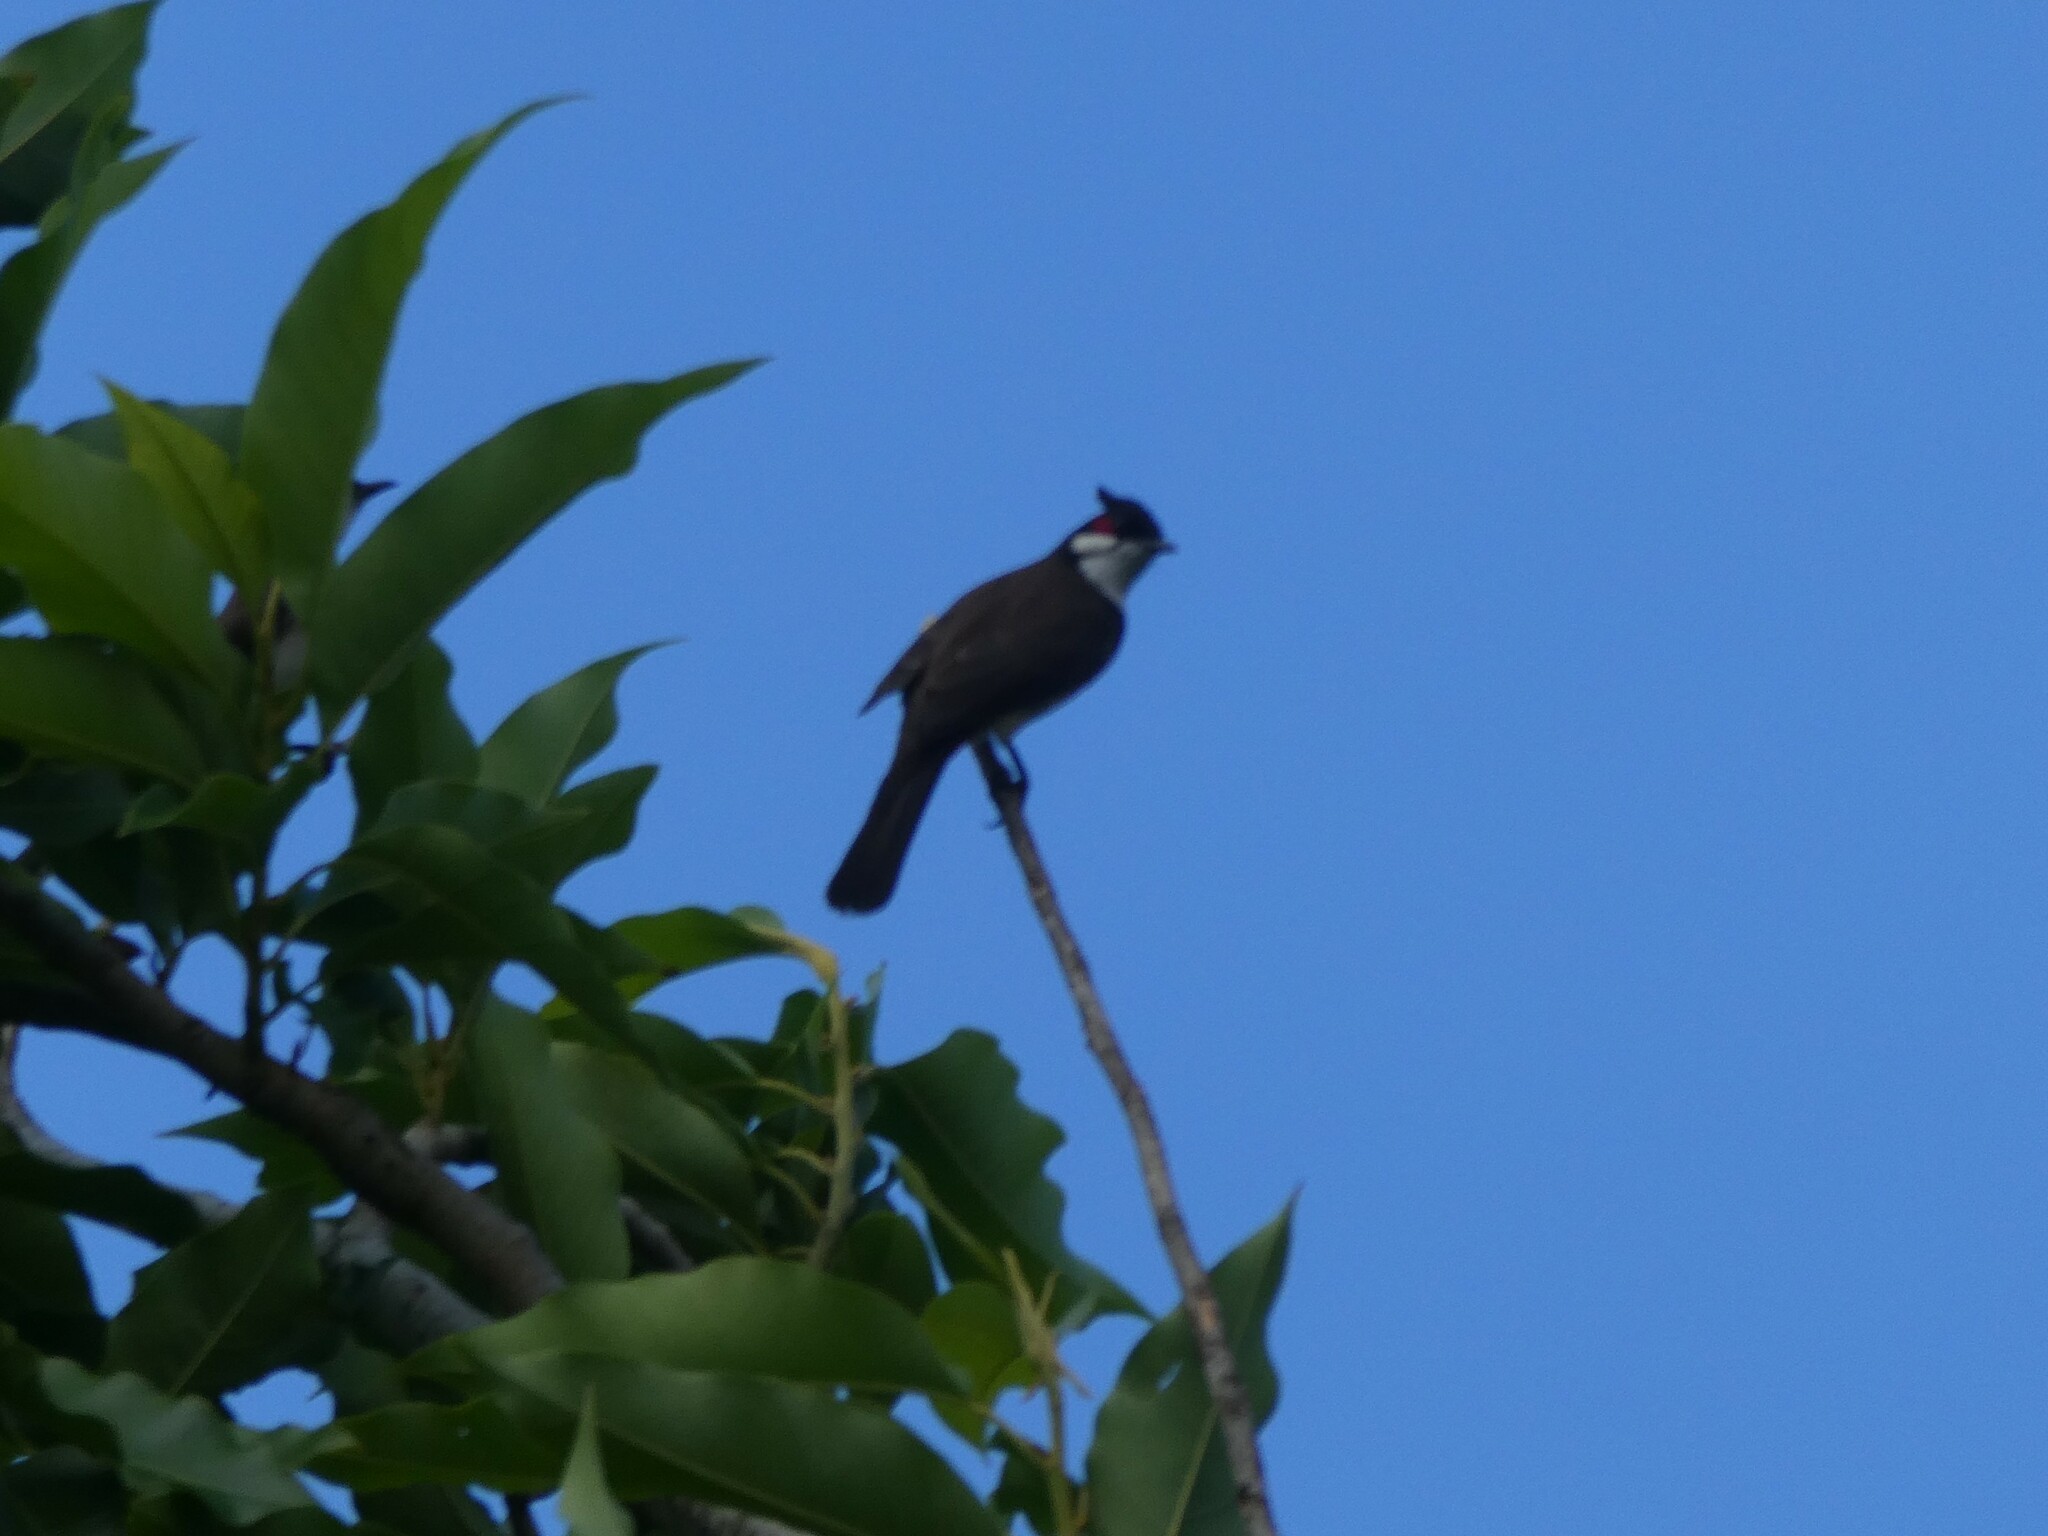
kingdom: Animalia
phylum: Chordata
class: Aves
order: Passeriformes
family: Pycnonotidae
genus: Pycnonotus
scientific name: Pycnonotus jocosus
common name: Red-whiskered bulbul
